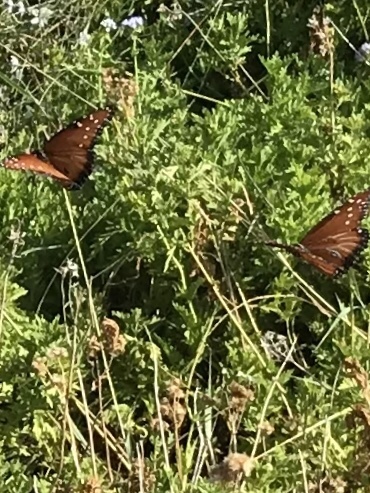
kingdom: Animalia
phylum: Arthropoda
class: Insecta
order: Lepidoptera
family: Nymphalidae
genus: Danaus
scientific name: Danaus gilippus
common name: Queen
